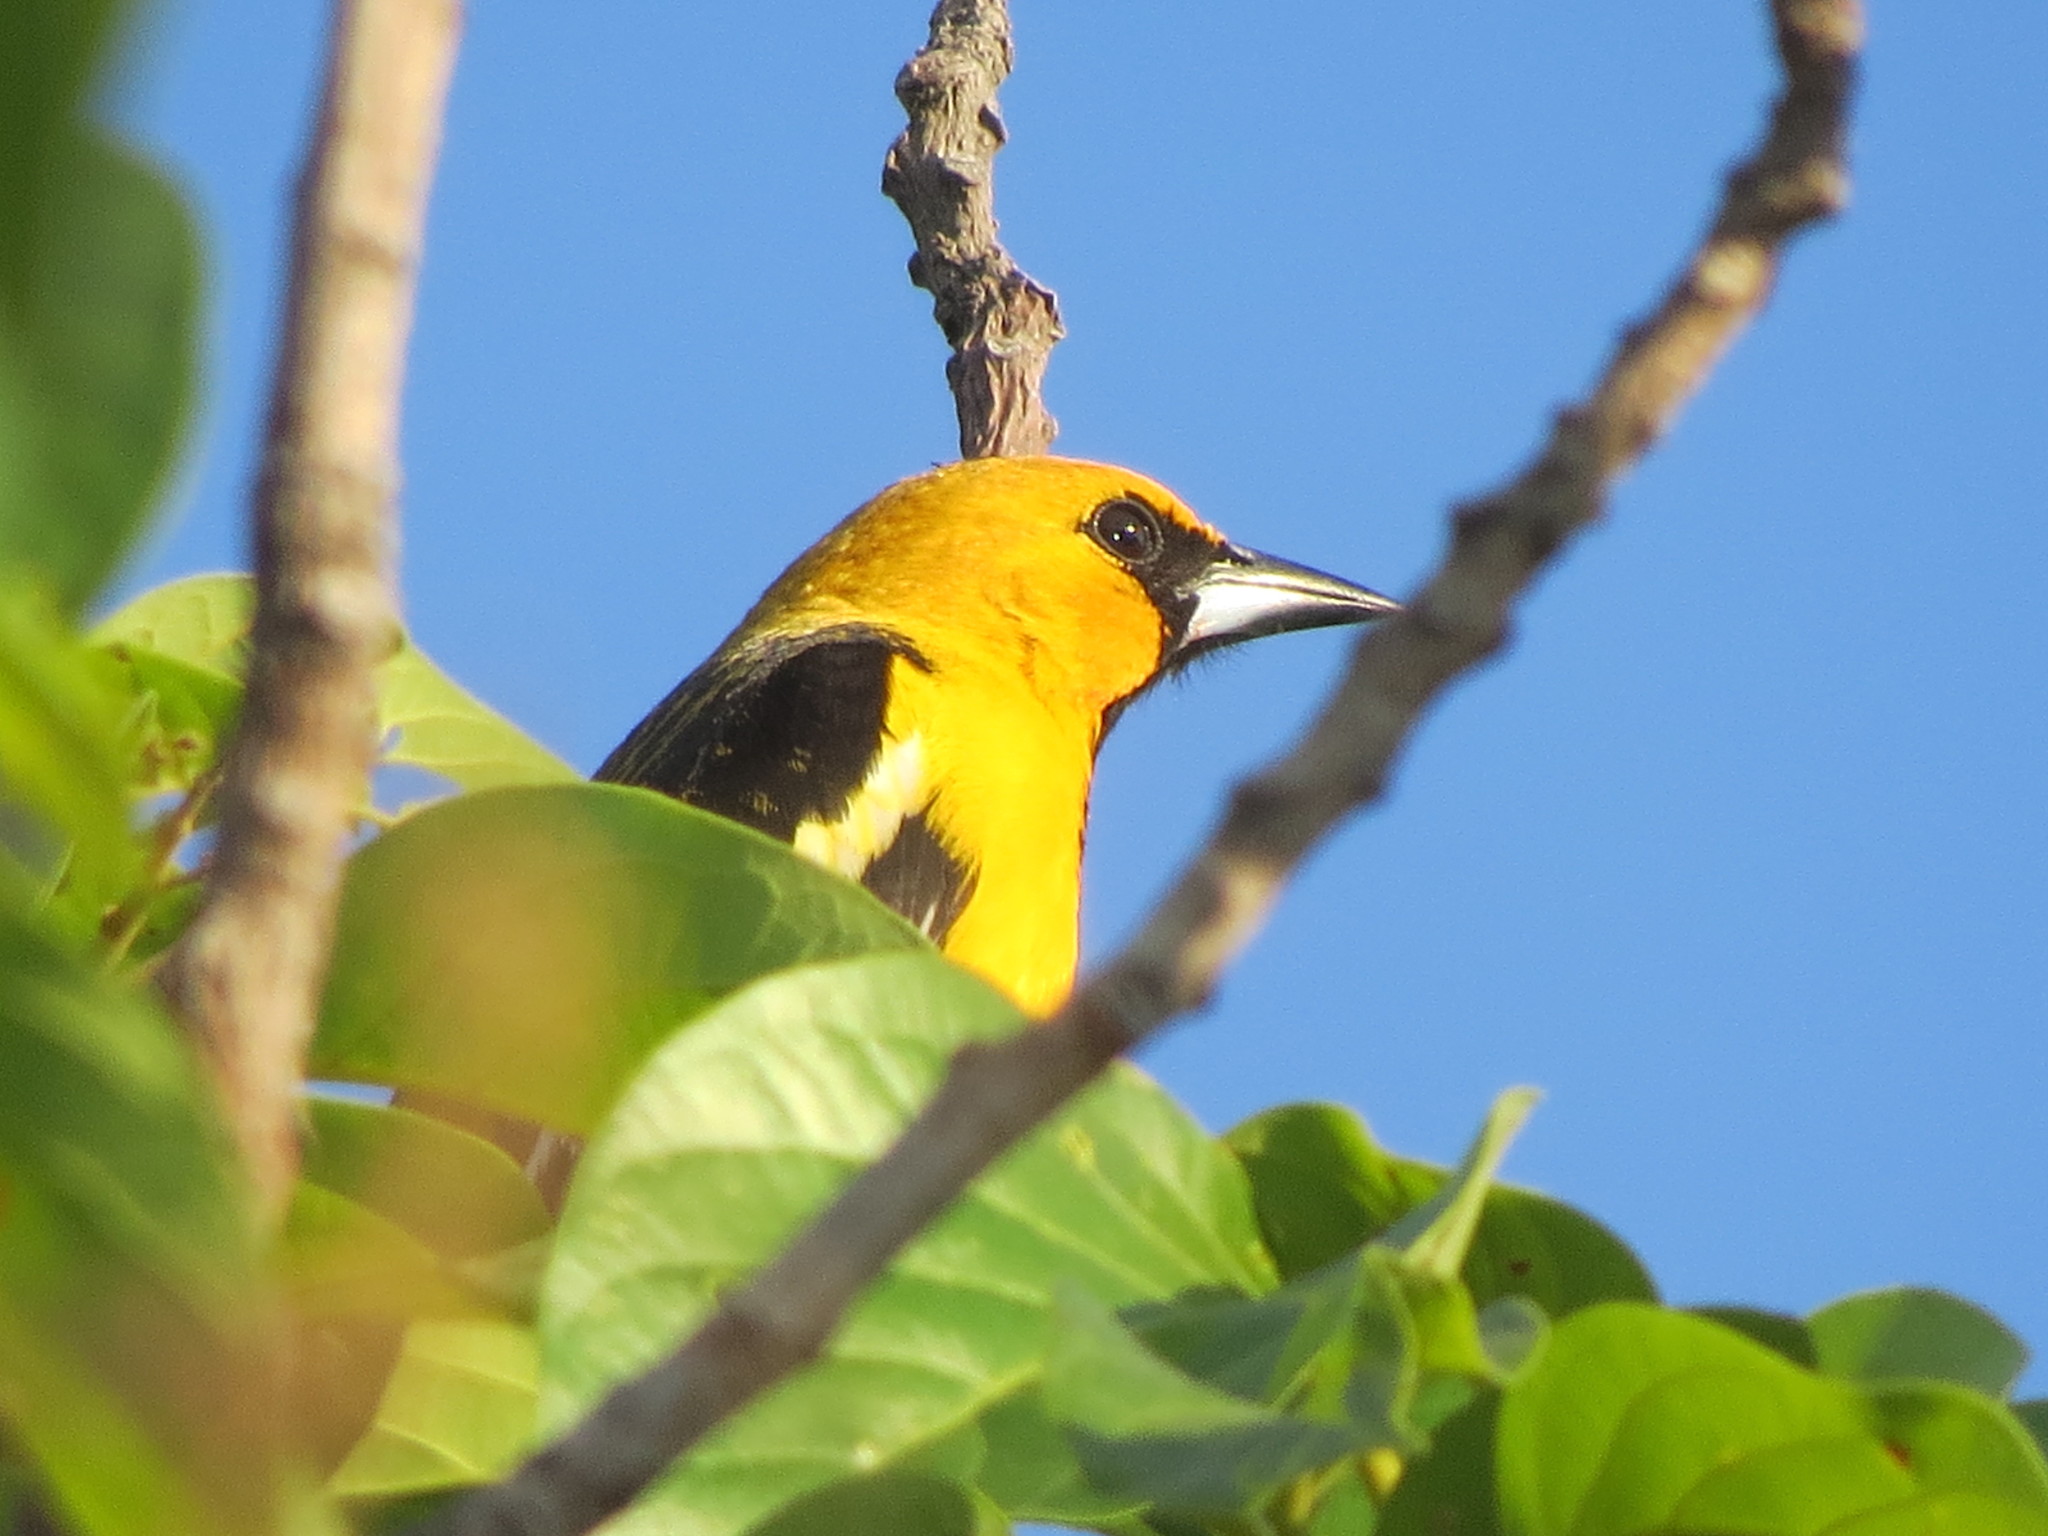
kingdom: Animalia
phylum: Chordata
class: Aves
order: Passeriformes
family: Icteridae
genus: Icterus
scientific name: Icterus pustulatus
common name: Streak-backed oriole
